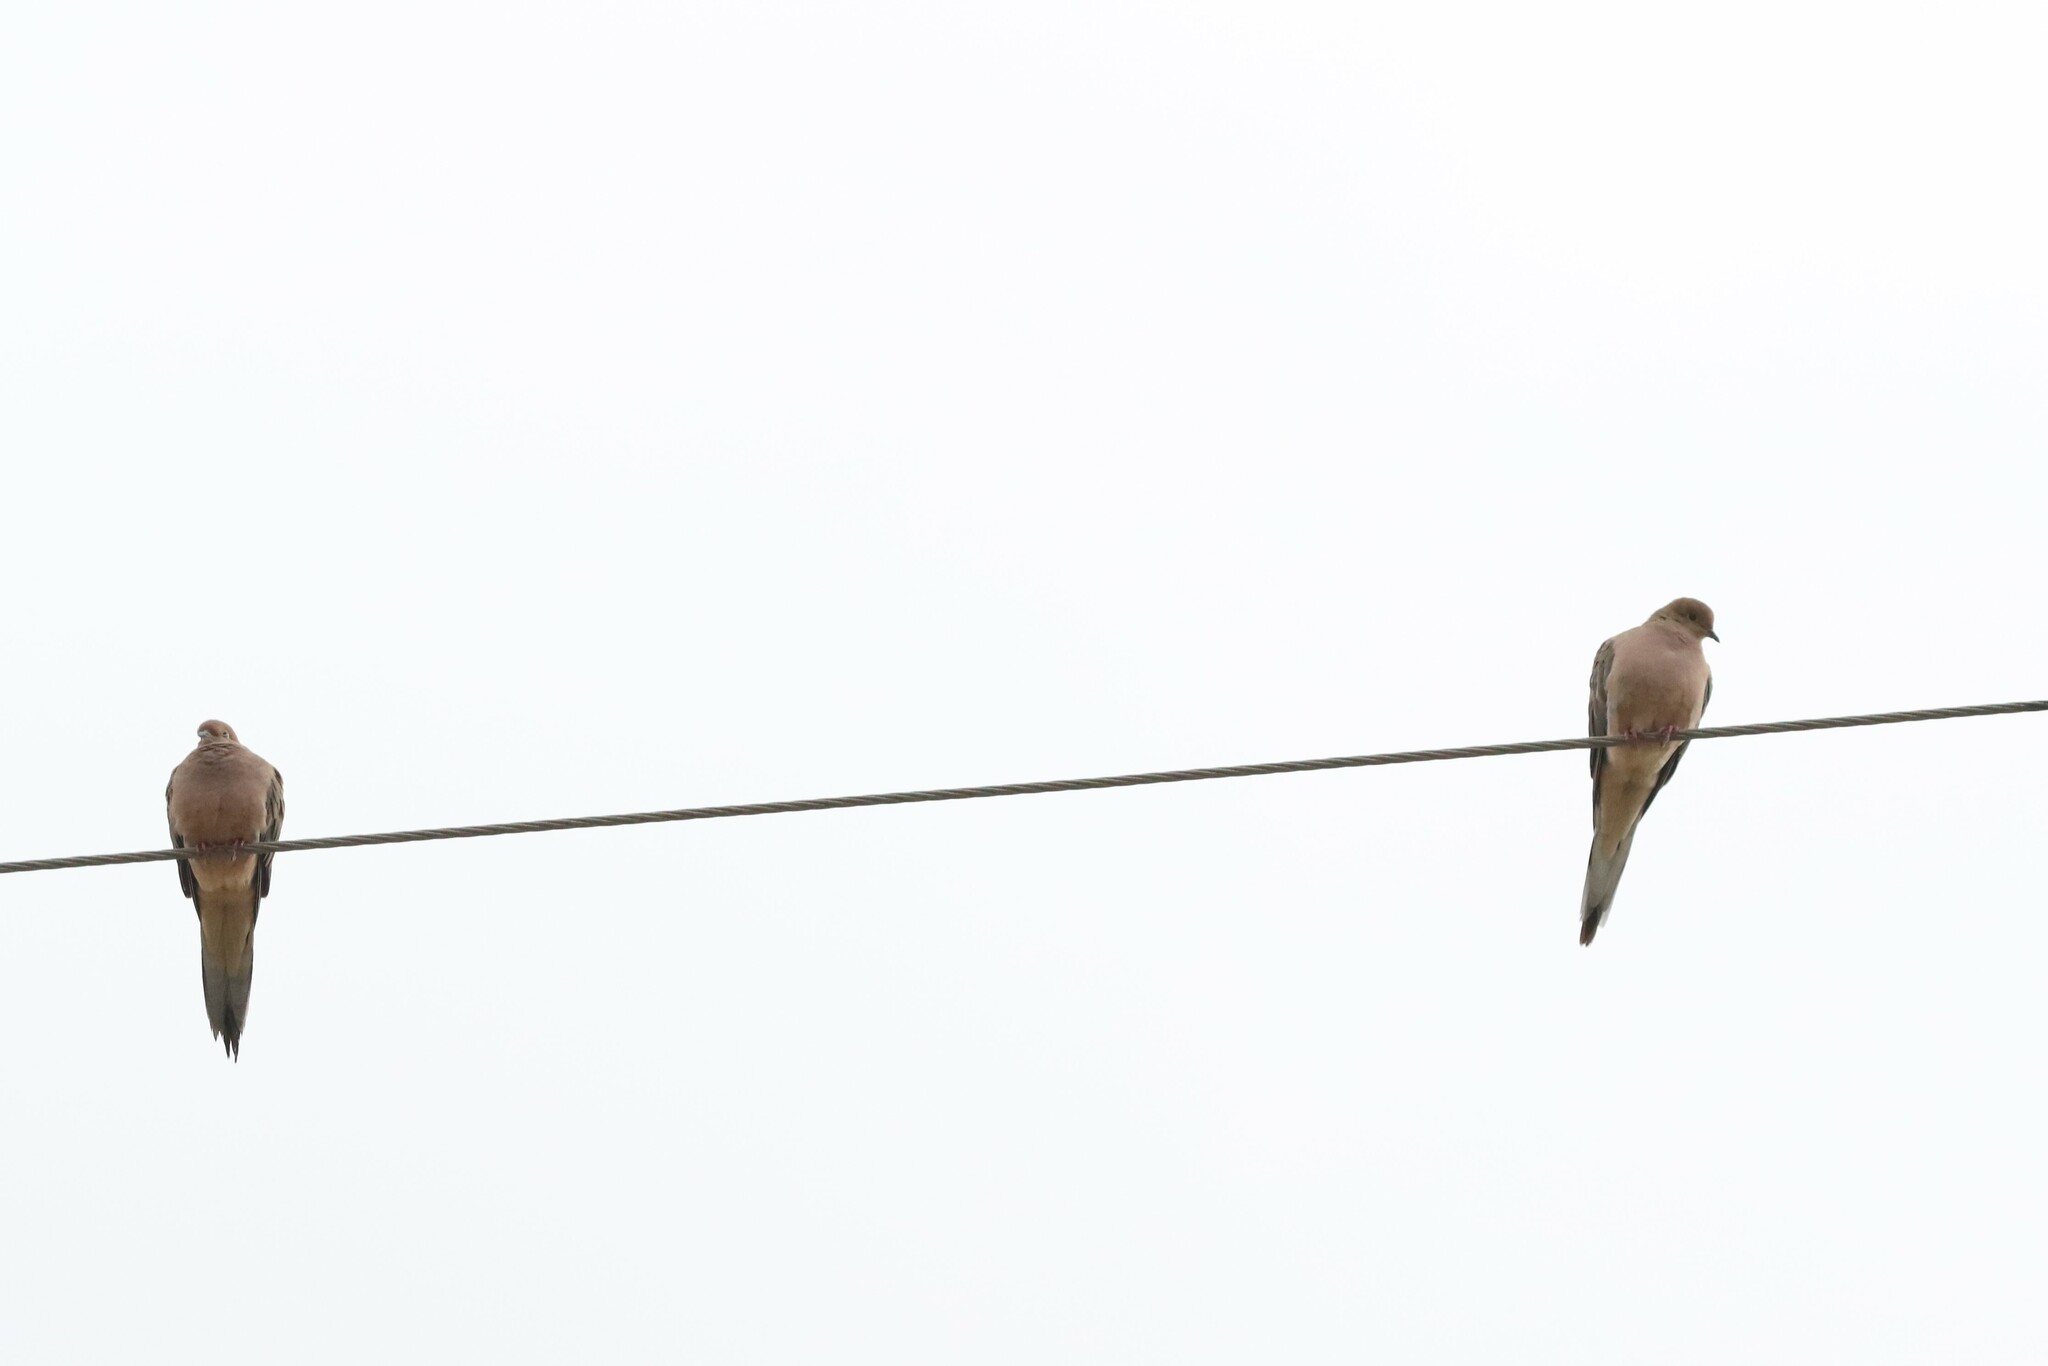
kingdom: Animalia
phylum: Chordata
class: Aves
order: Columbiformes
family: Columbidae
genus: Zenaida
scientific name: Zenaida macroura
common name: Mourning dove
